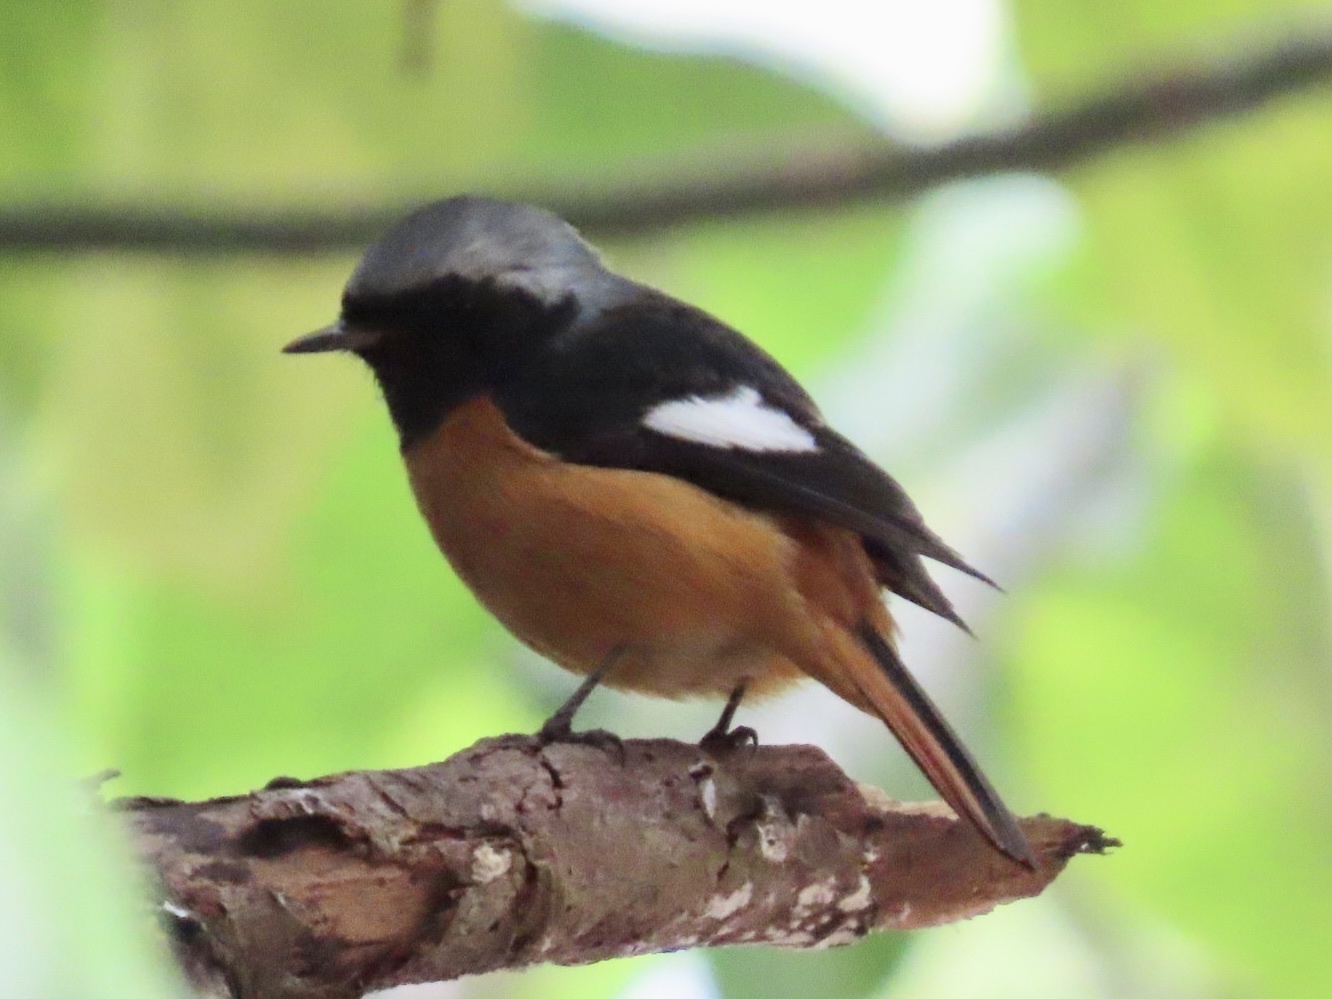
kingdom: Animalia
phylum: Chordata
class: Aves
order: Passeriformes
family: Muscicapidae
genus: Phoenicurus
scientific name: Phoenicurus auroreus
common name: Daurian redstart
